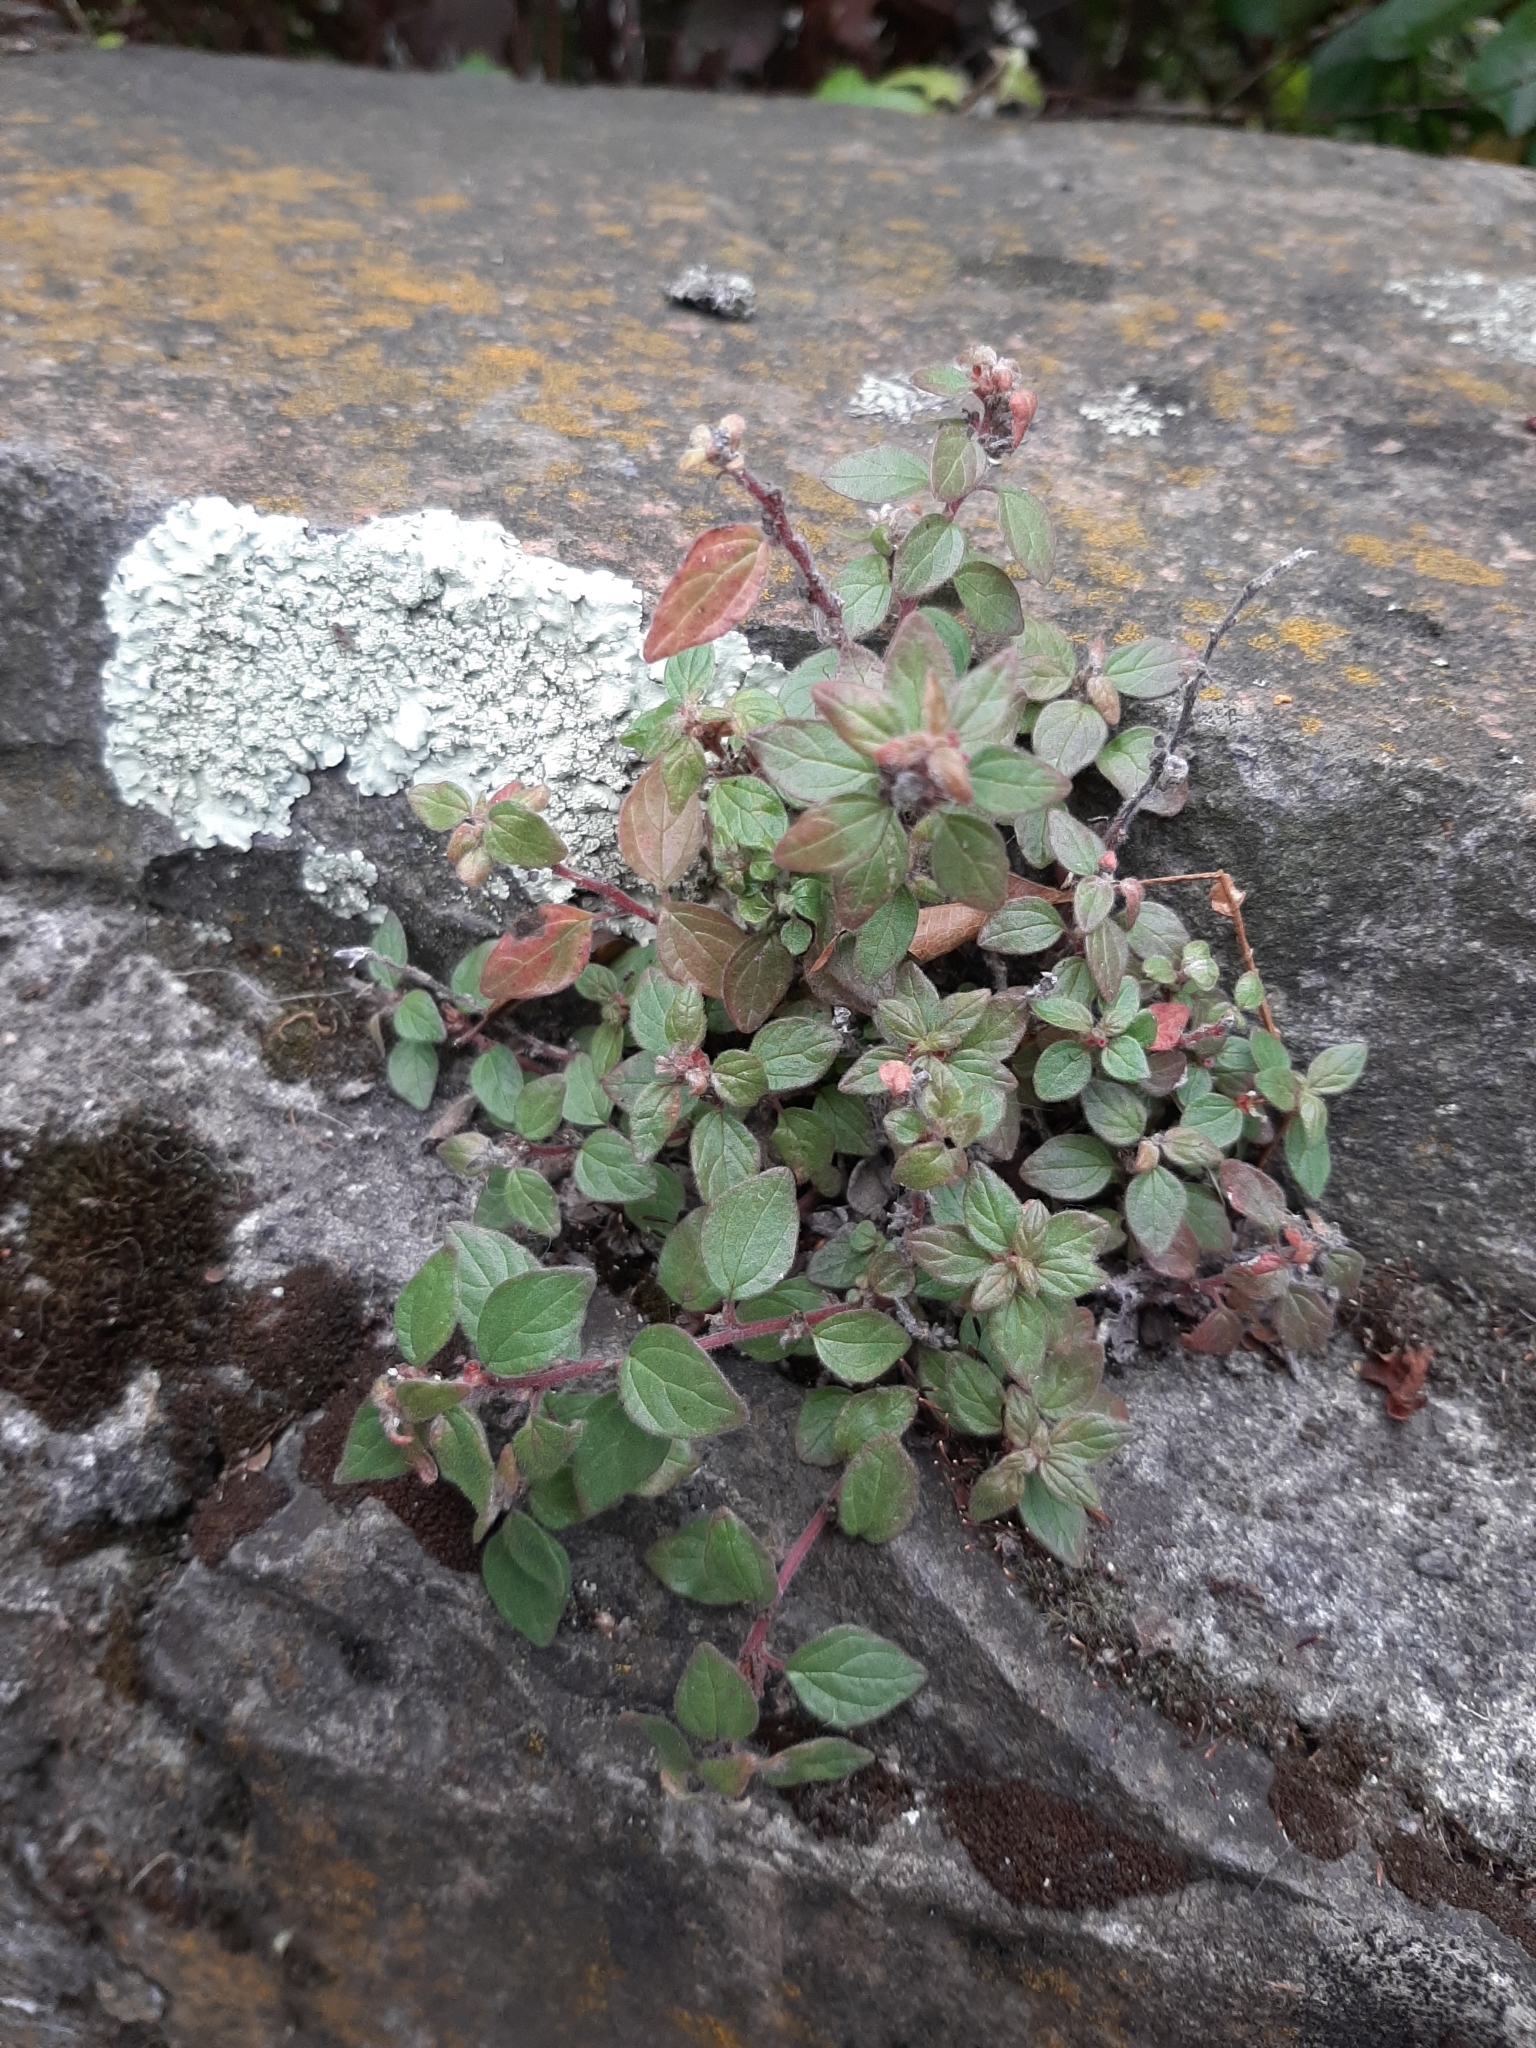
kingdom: Plantae
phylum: Tracheophyta
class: Magnoliopsida
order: Rosales
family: Urticaceae
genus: Parietaria
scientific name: Parietaria judaica
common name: Pellitory-of-the-wall
